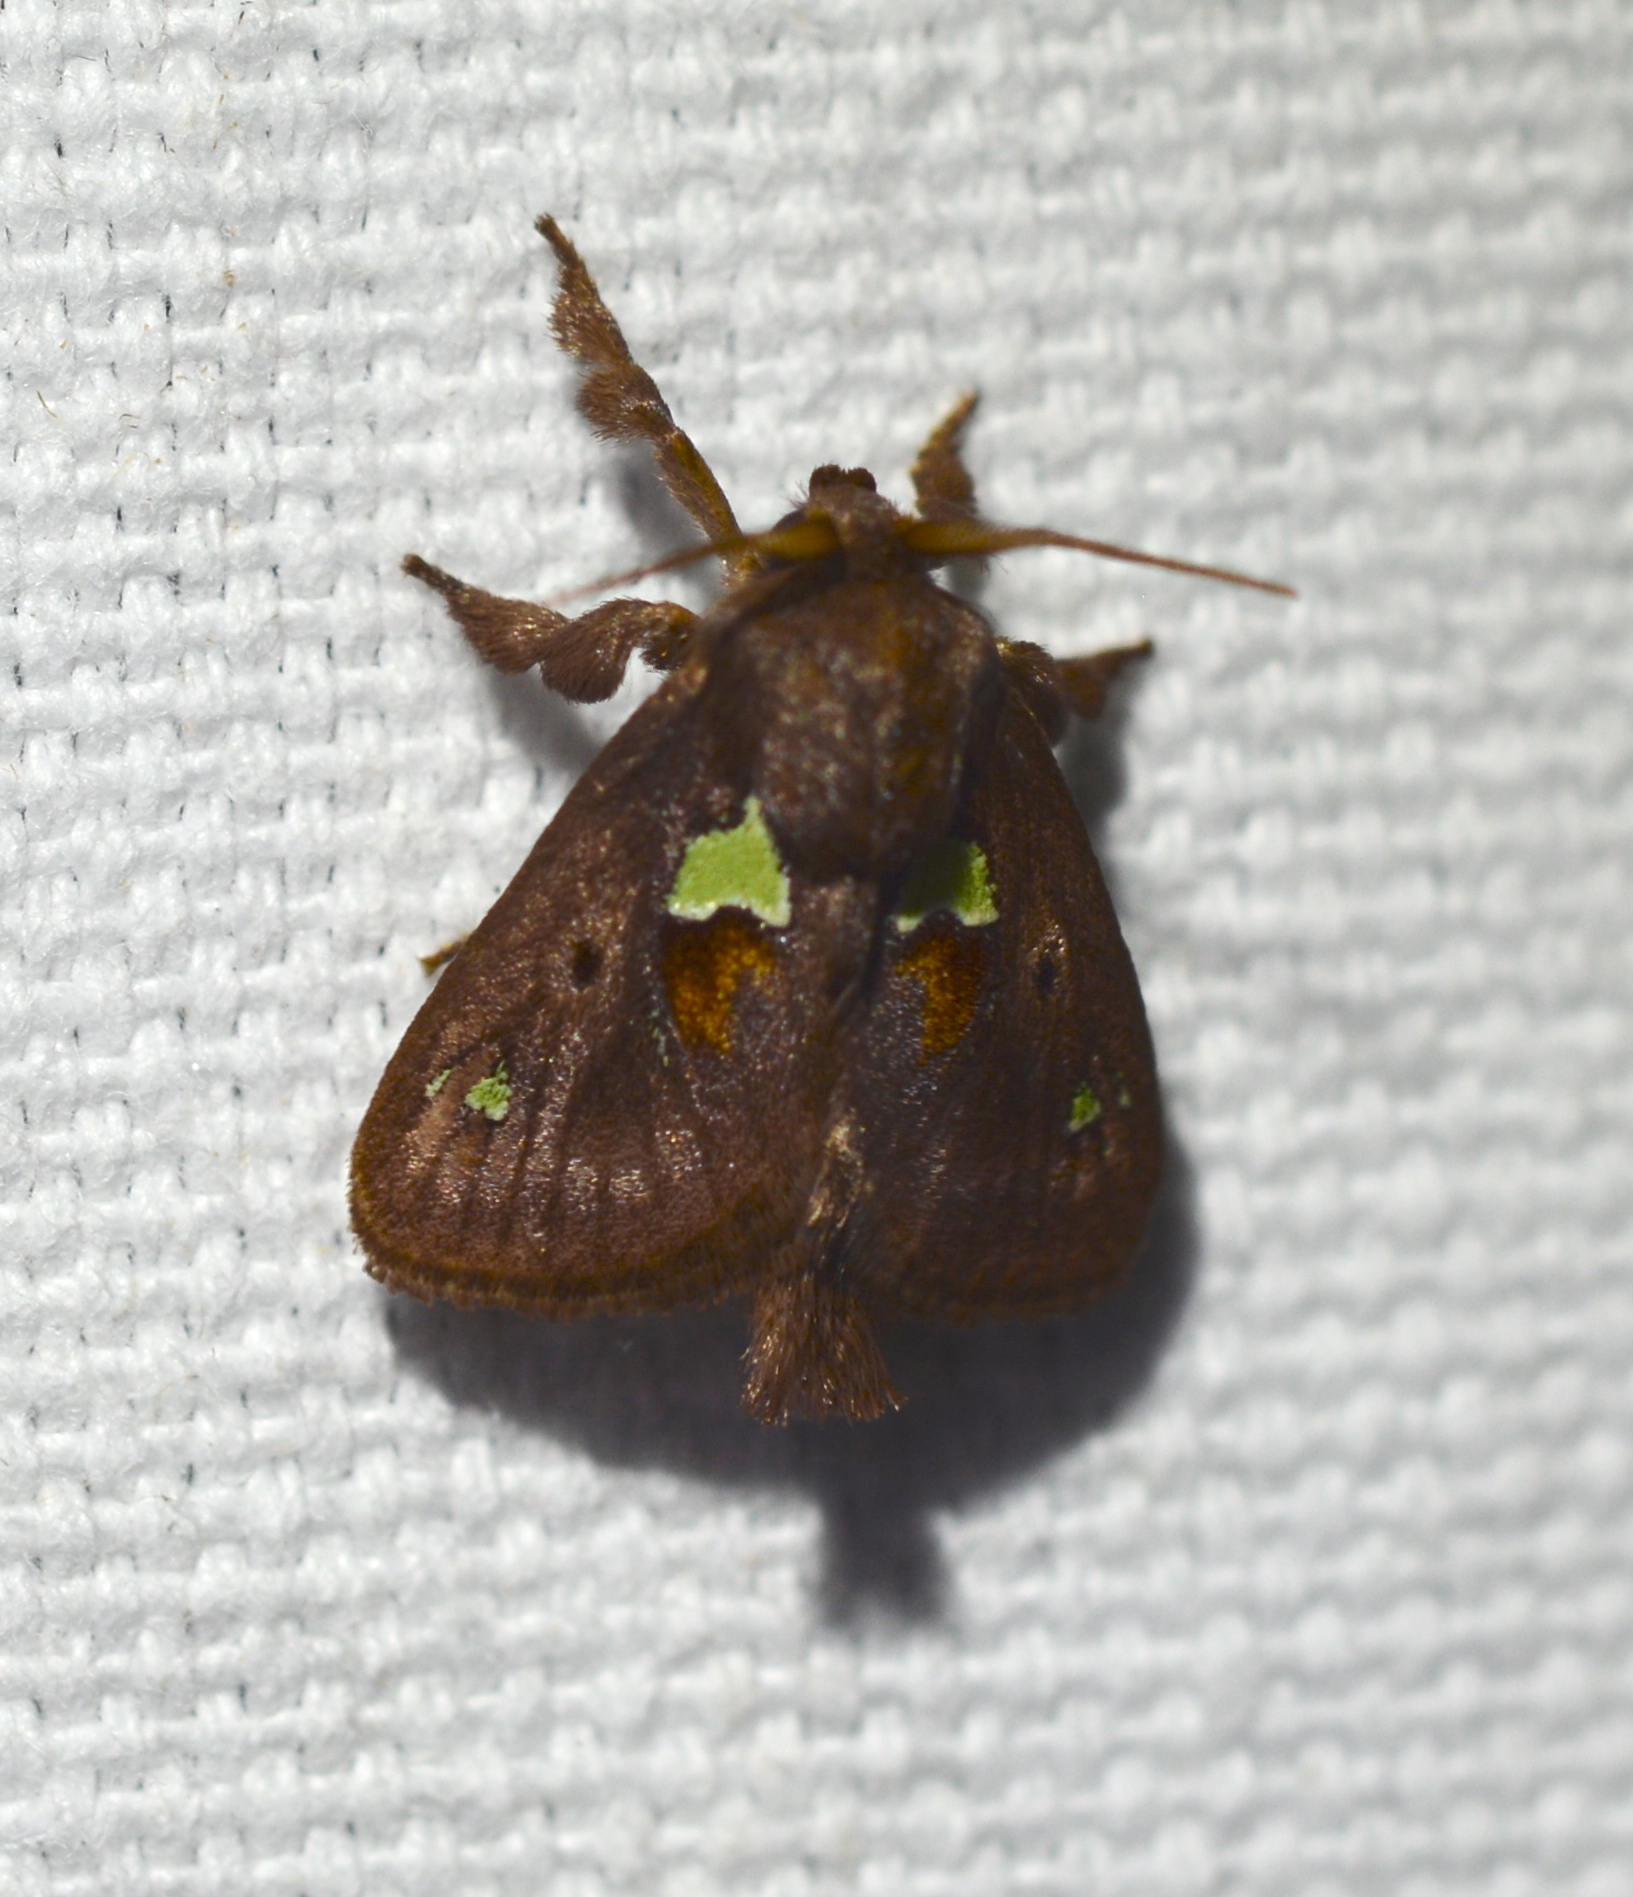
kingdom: Animalia
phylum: Arthropoda
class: Insecta
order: Lepidoptera
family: Limacodidae
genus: Euclea
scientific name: Euclea delphinii
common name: Spiny oak-slug moth
